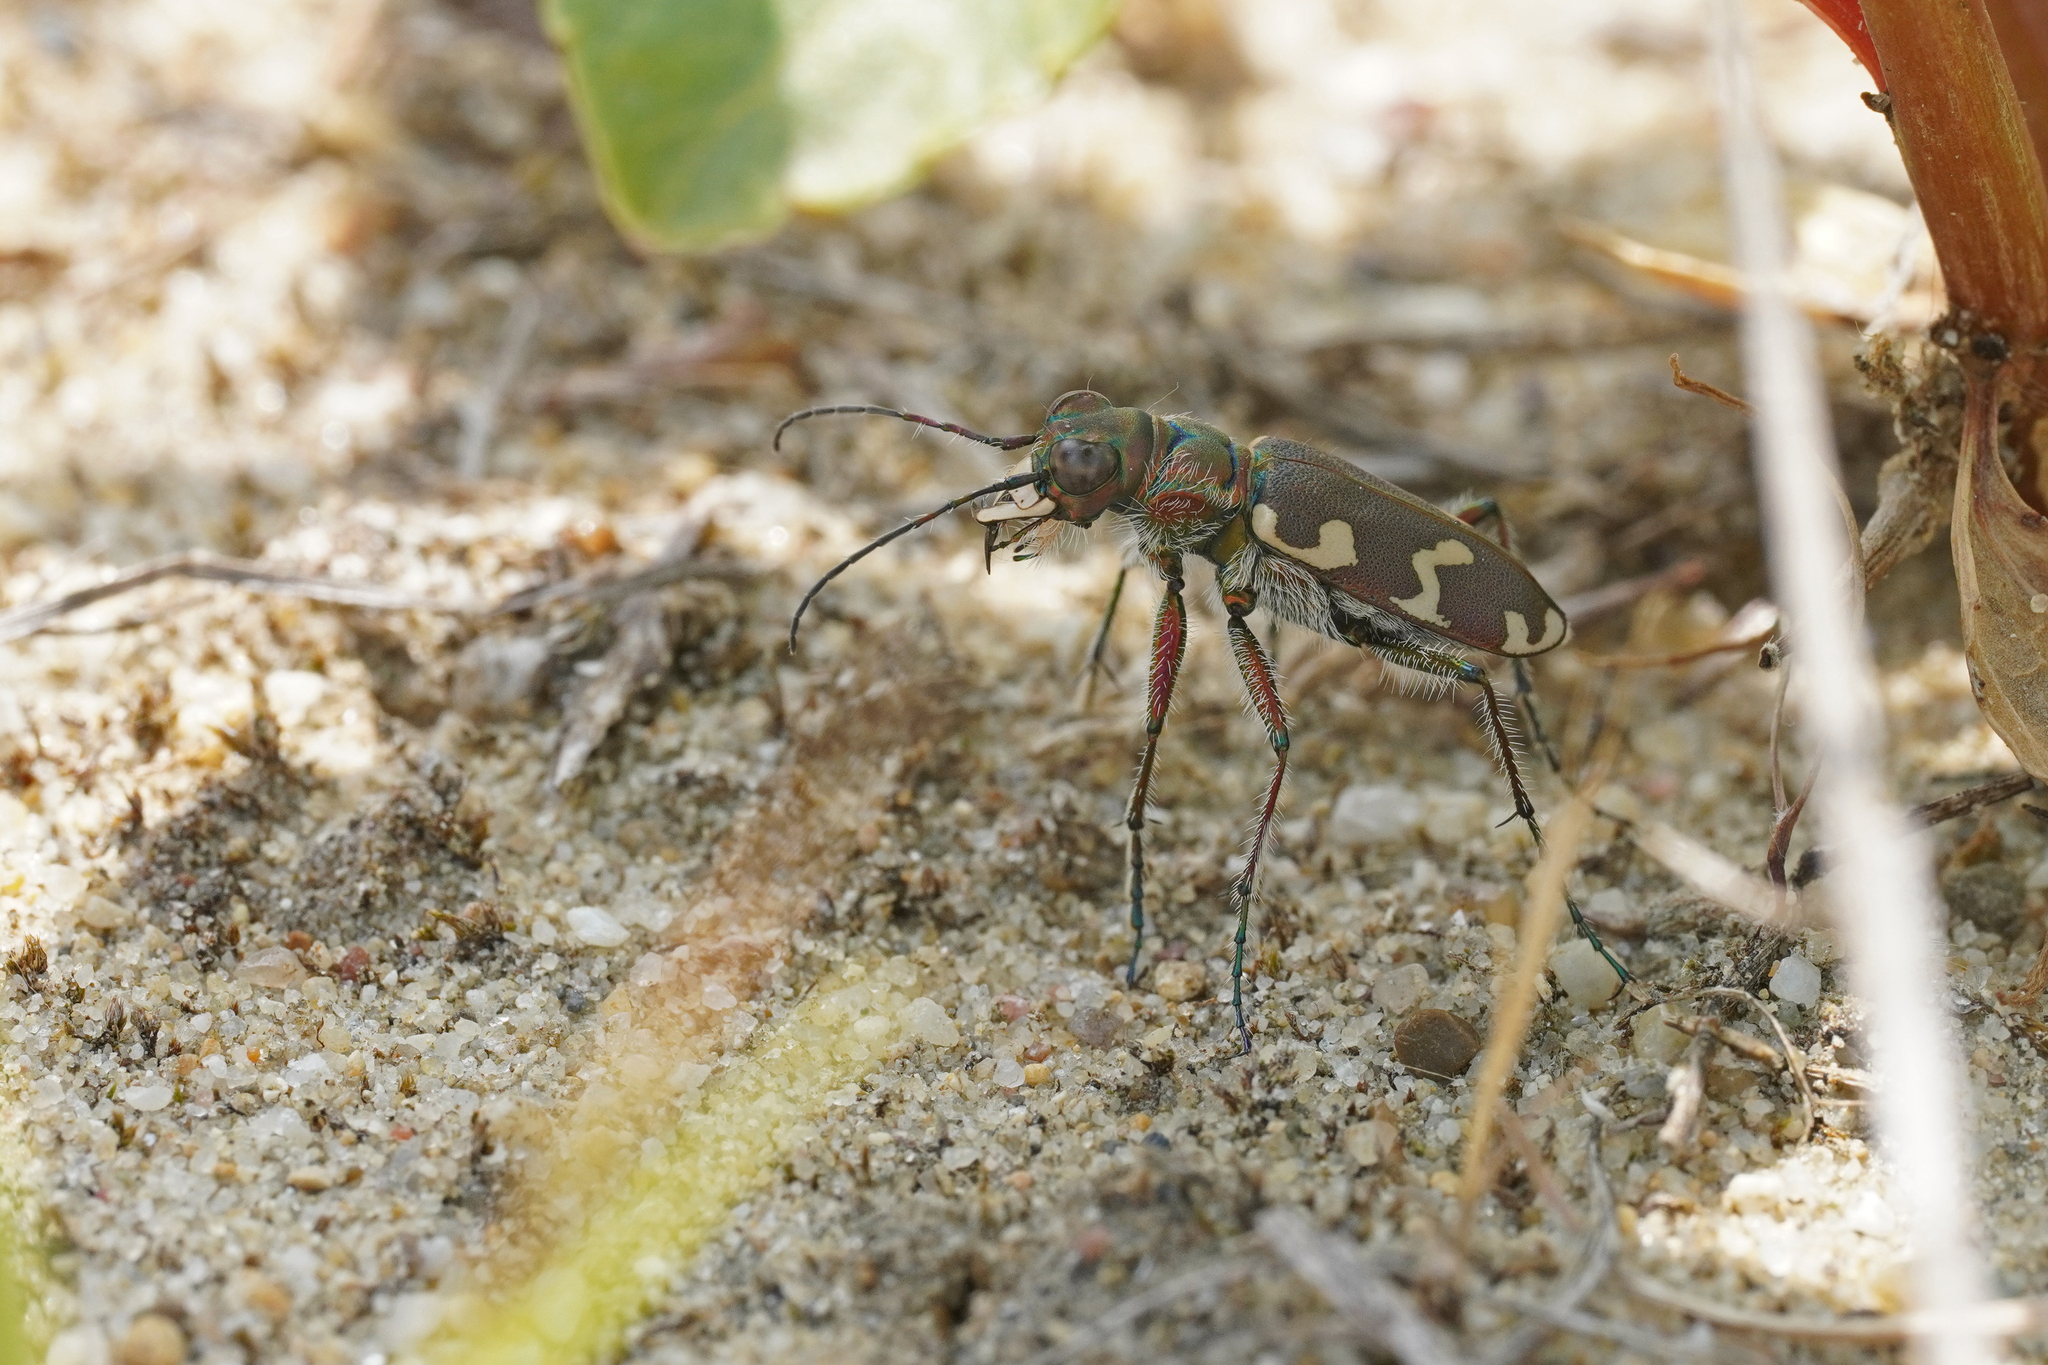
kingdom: Animalia
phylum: Arthropoda
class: Insecta
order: Coleoptera
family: Carabidae
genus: Cicindela
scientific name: Cicindela hybrida
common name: Northern dune tiger beetle
